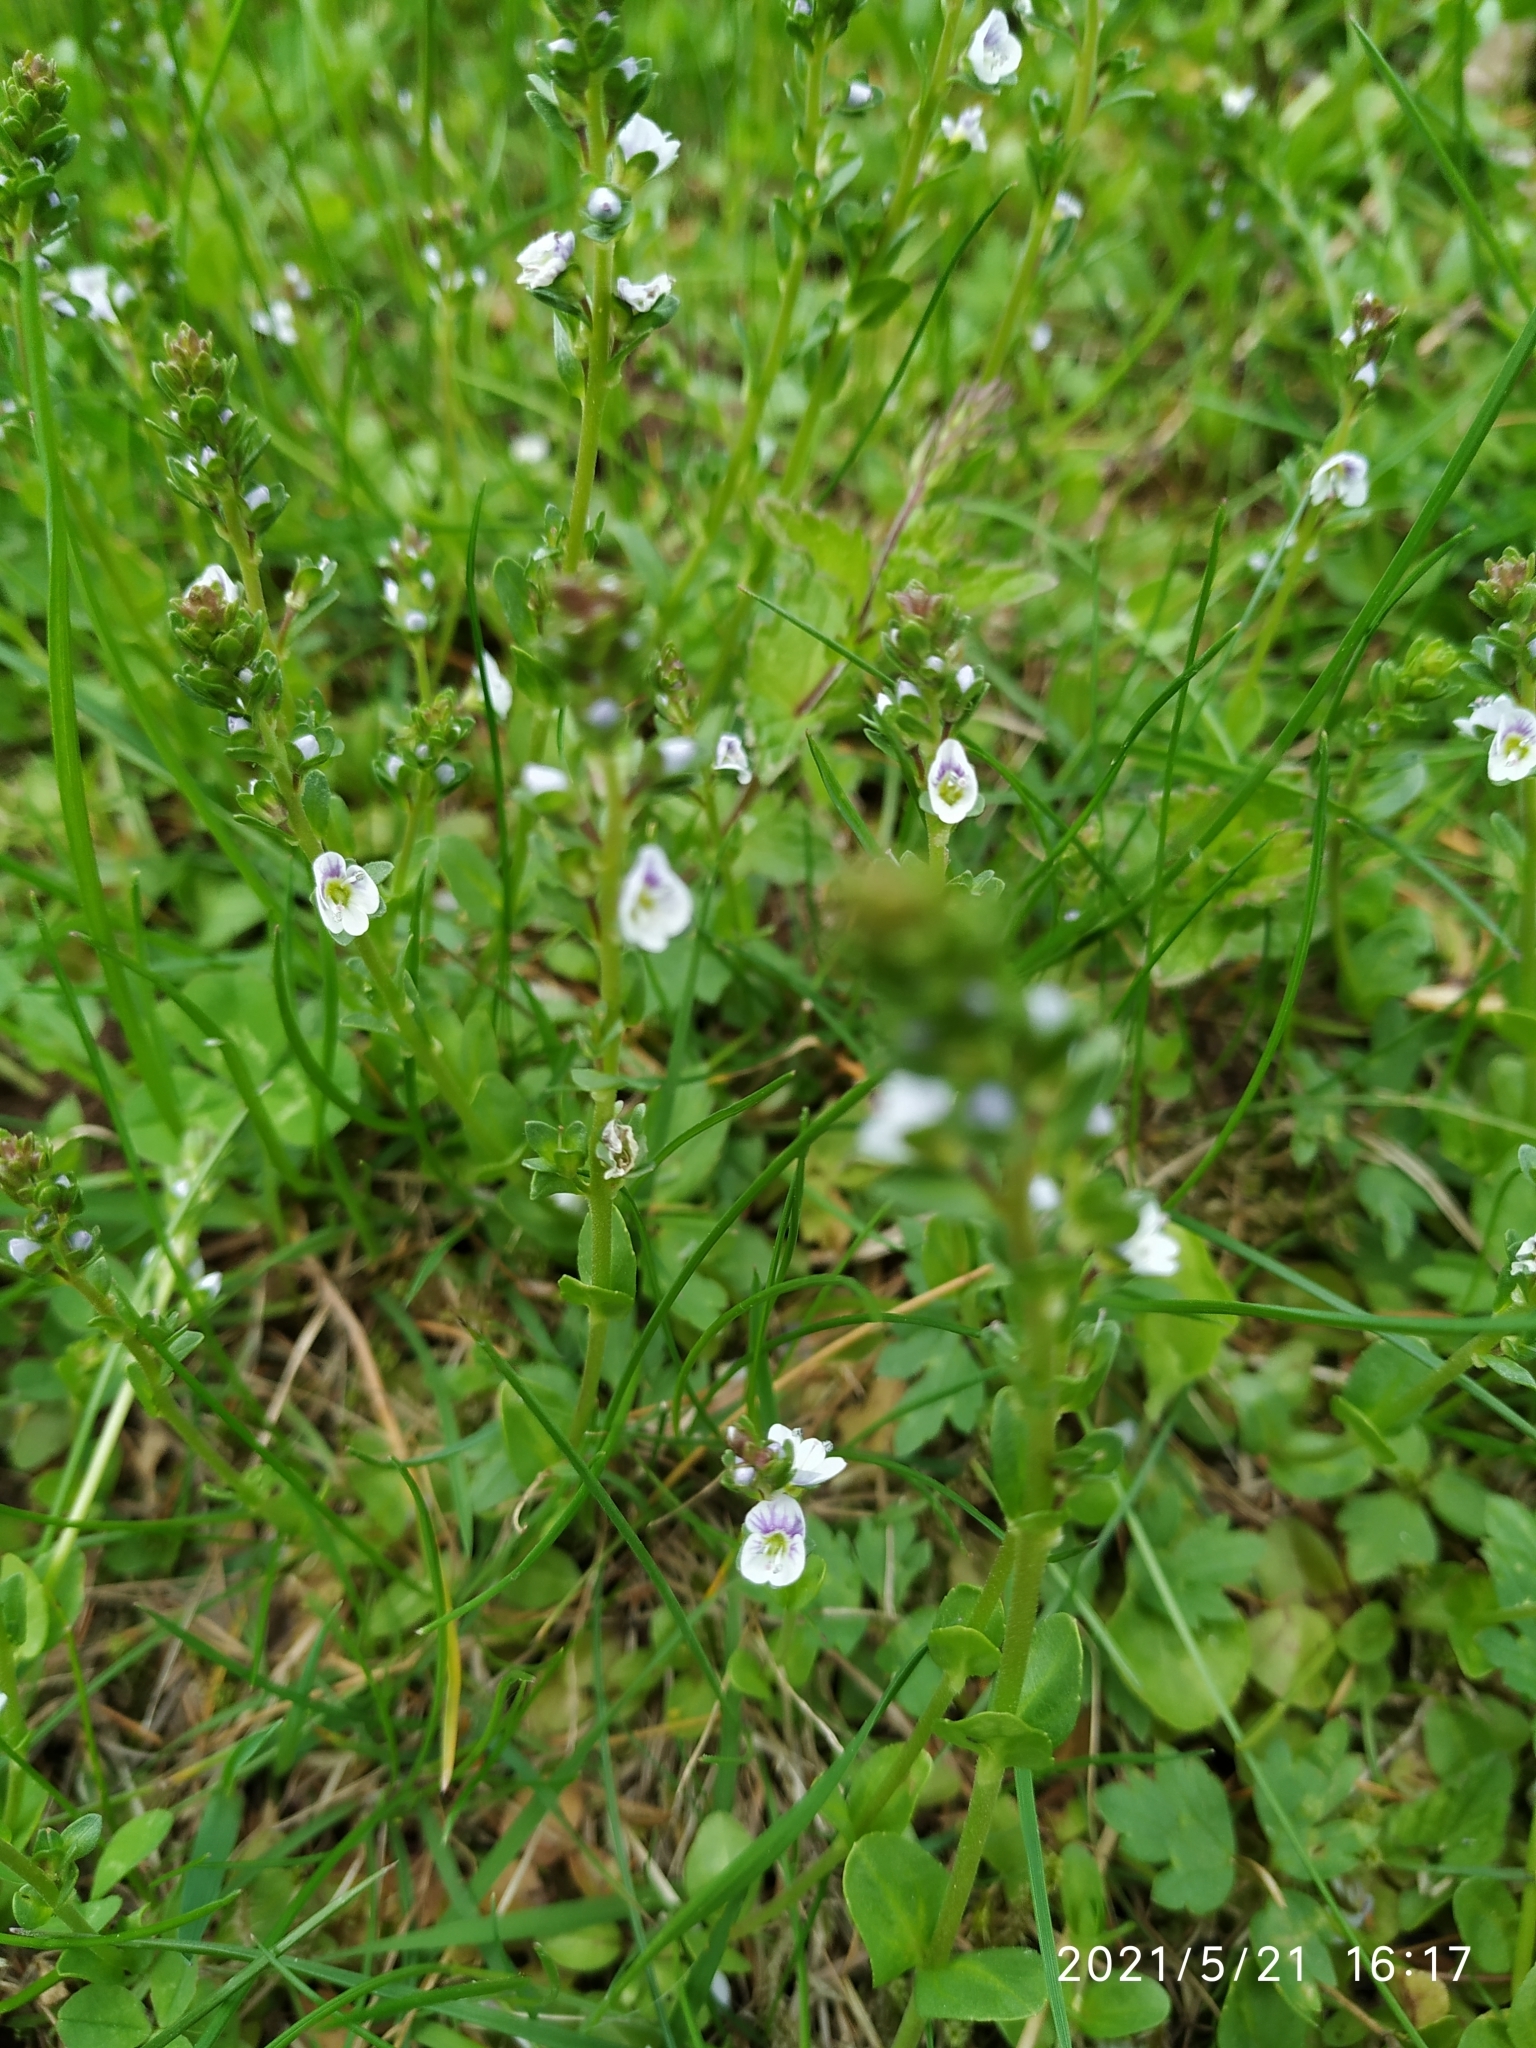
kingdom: Plantae
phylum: Tracheophyta
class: Magnoliopsida
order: Lamiales
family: Plantaginaceae
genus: Veronica
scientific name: Veronica serpyllifolia
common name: Thyme-leaved speedwell
